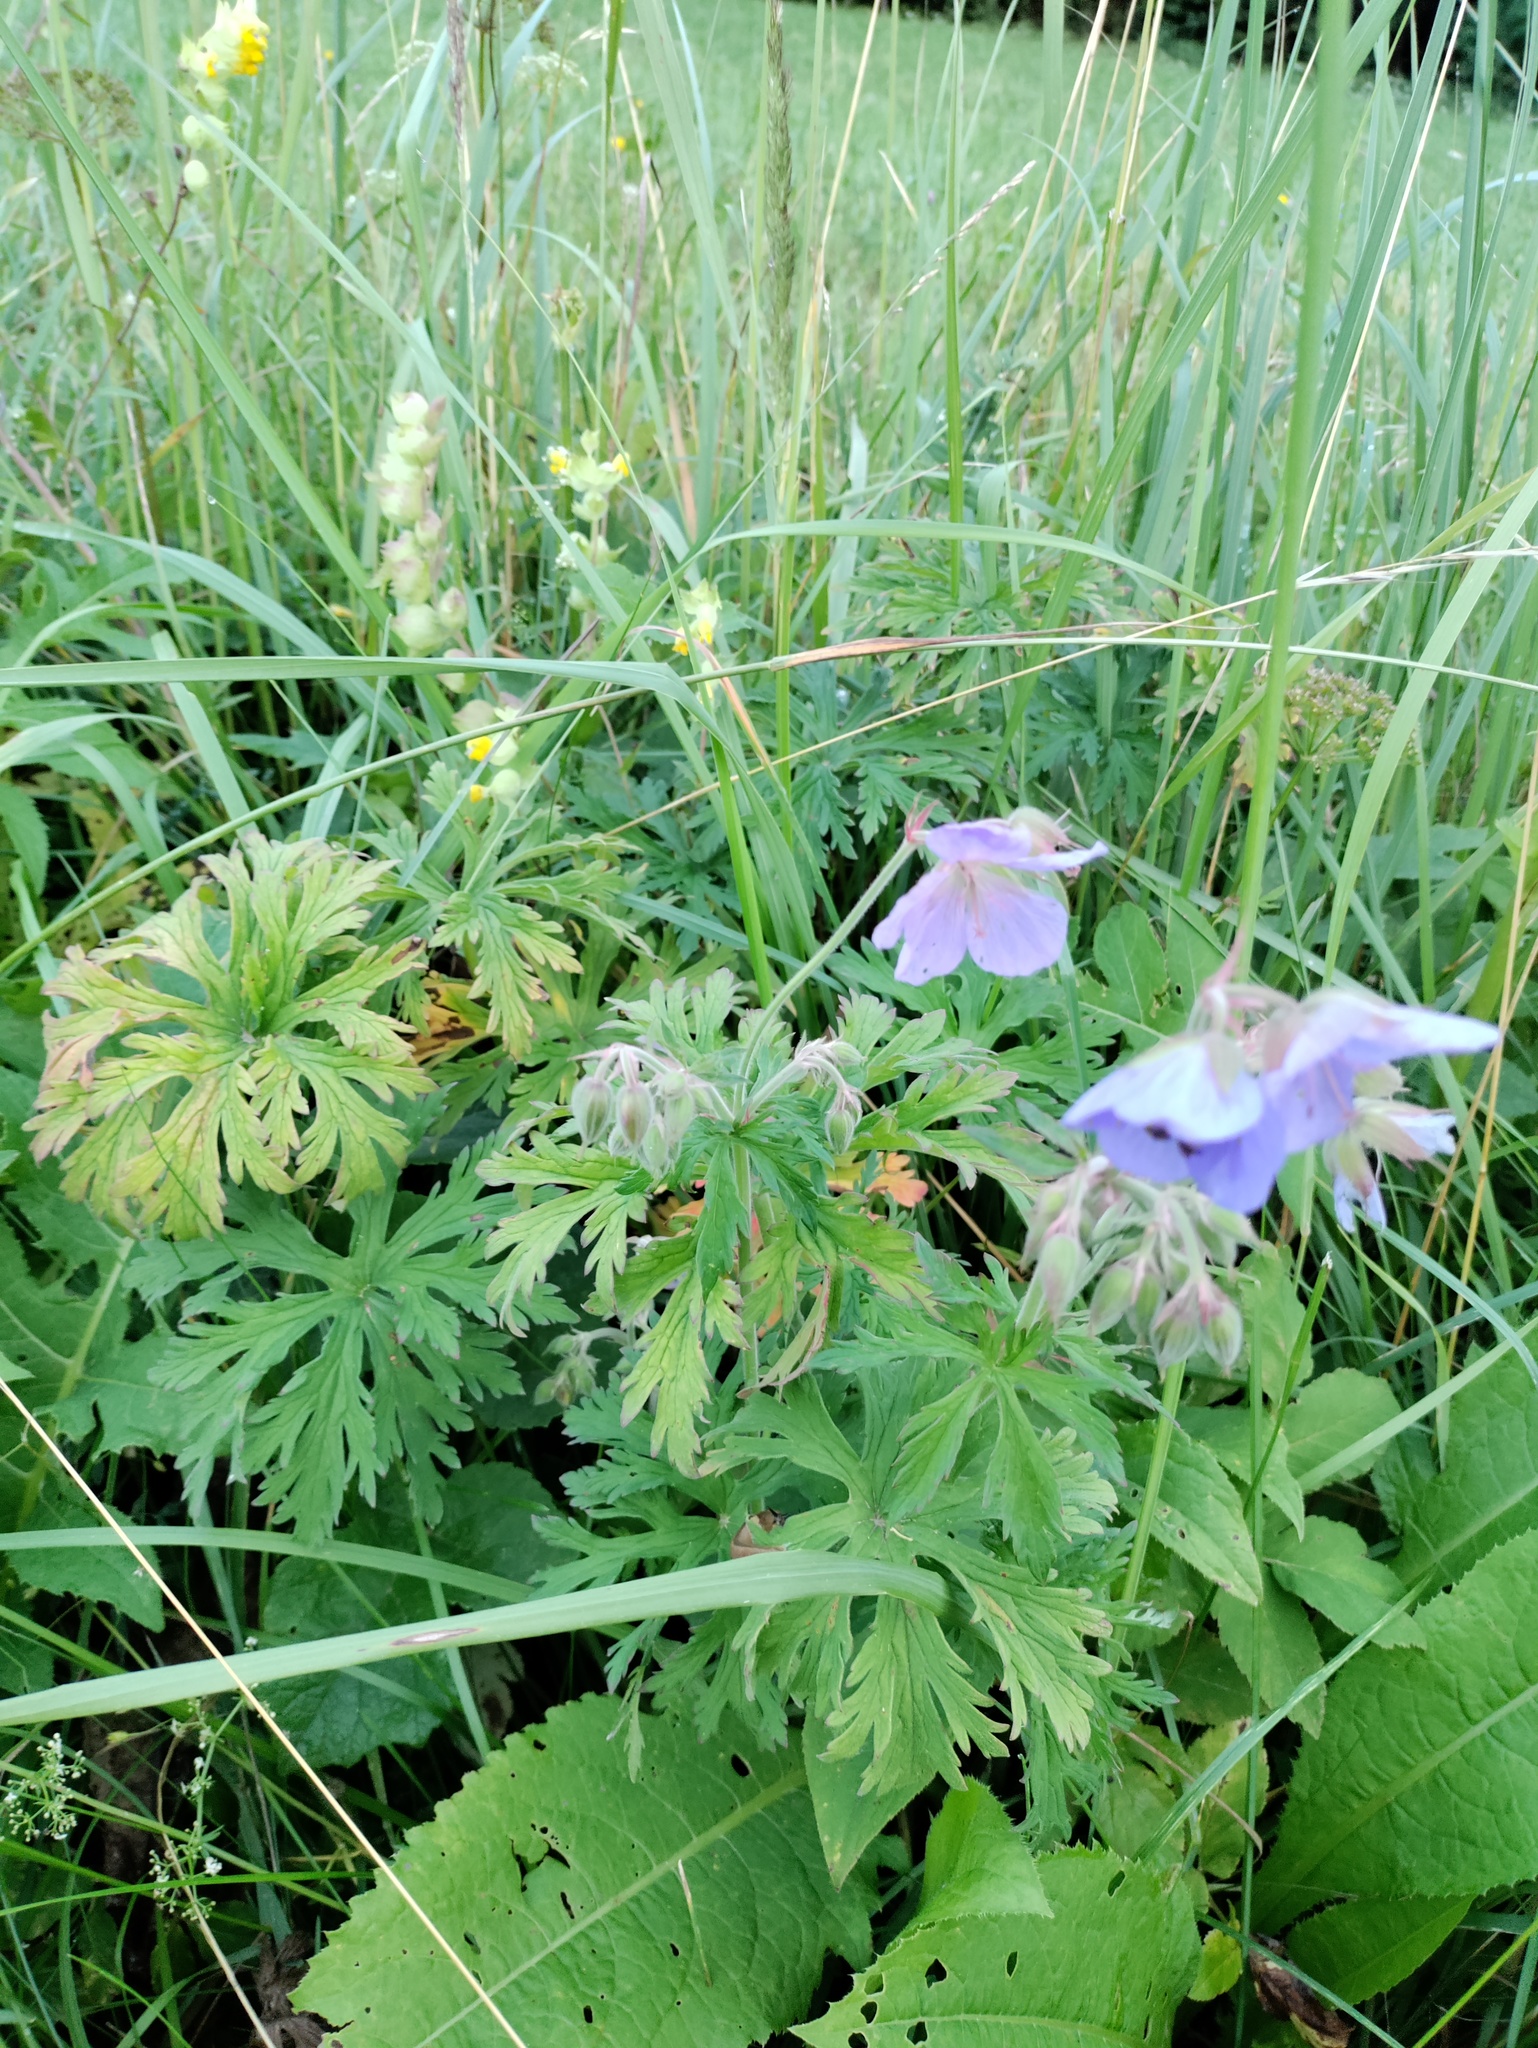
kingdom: Plantae
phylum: Tracheophyta
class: Magnoliopsida
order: Geraniales
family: Geraniaceae
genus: Geranium
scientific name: Geranium pratense
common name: Meadow crane's-bill
